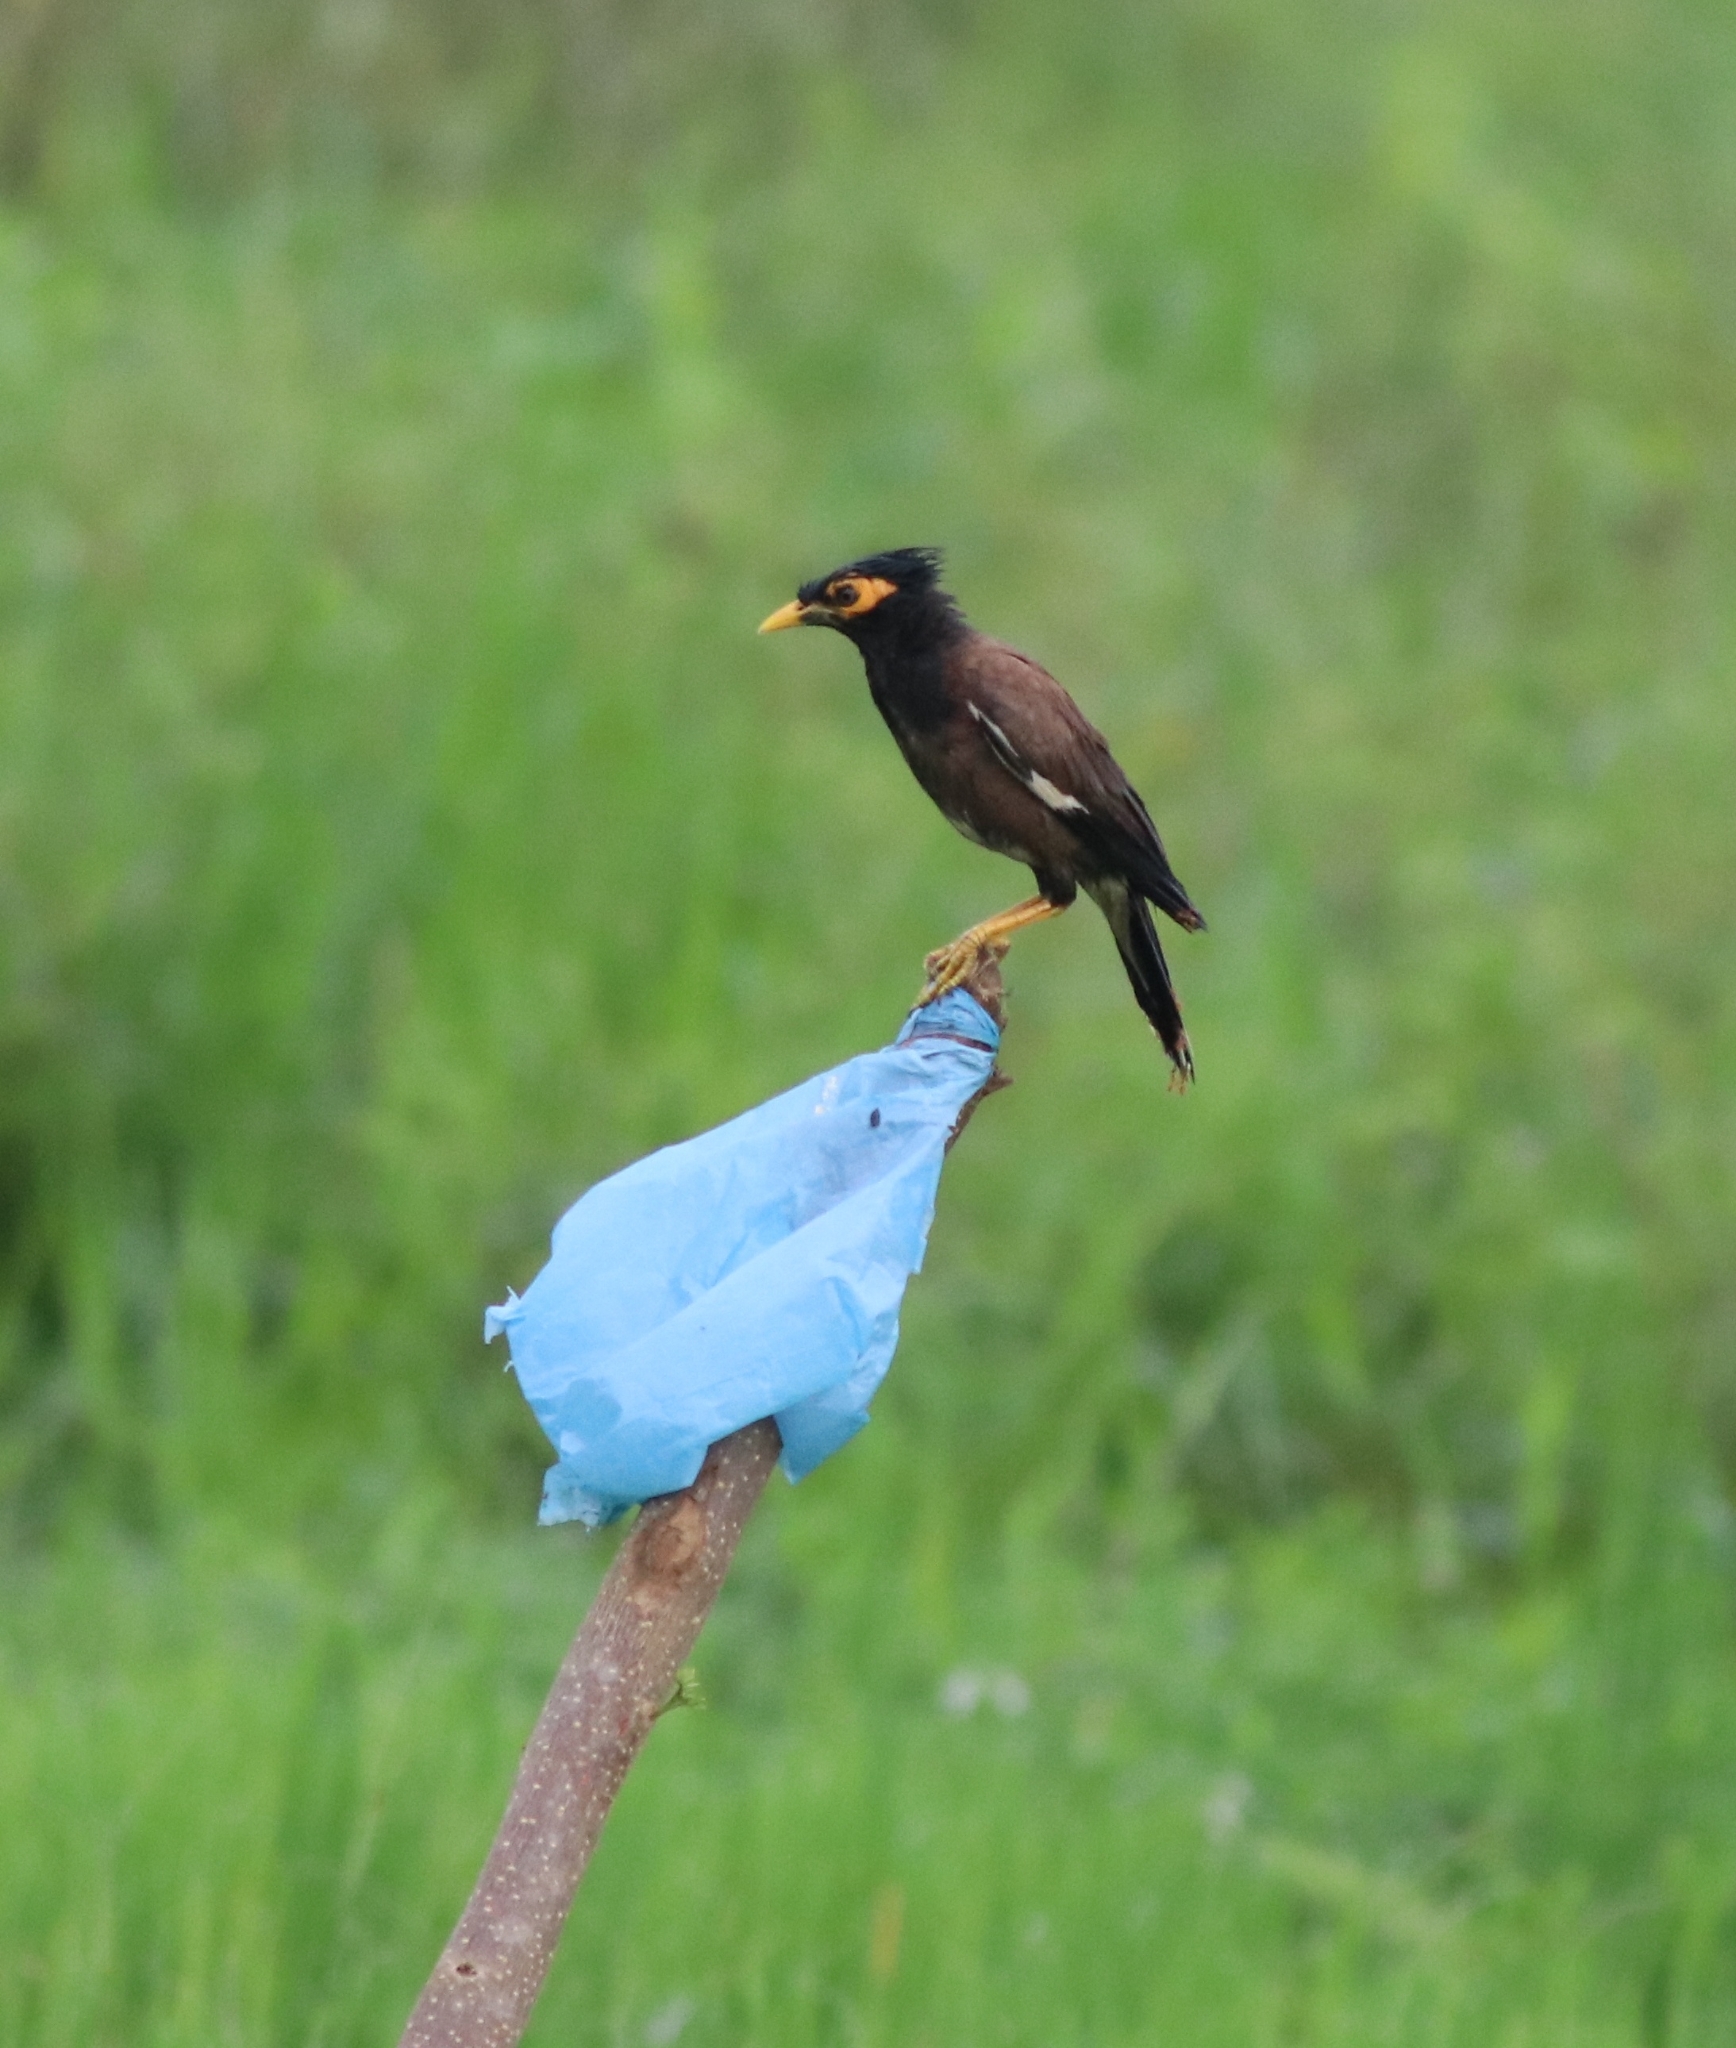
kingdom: Animalia
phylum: Chordata
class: Aves
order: Passeriformes
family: Sturnidae
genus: Acridotheres
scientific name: Acridotheres tristis
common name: Common myna
